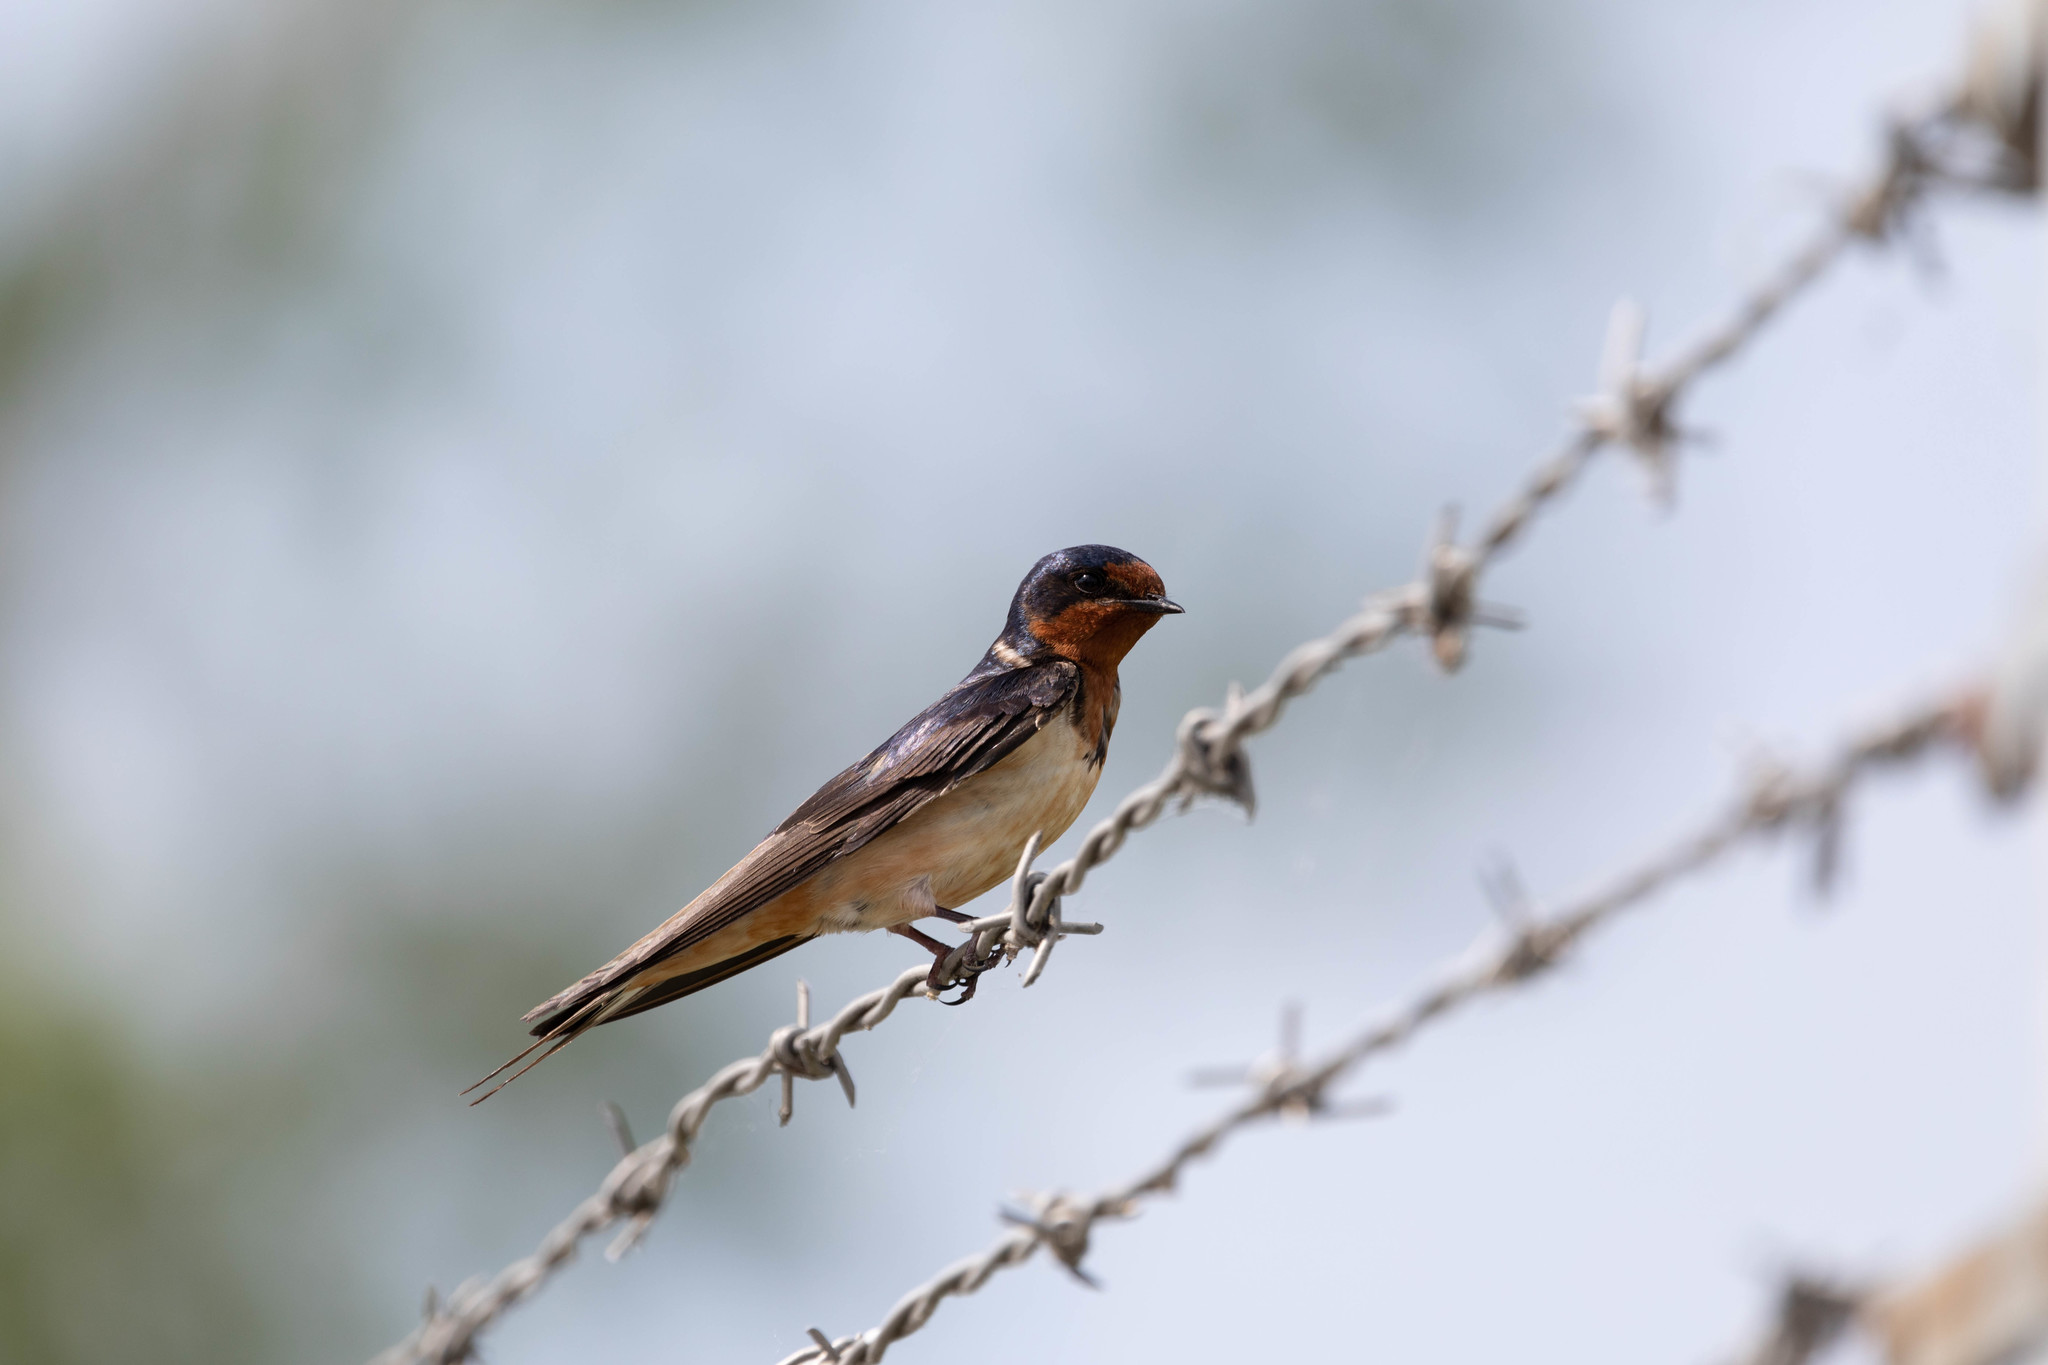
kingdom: Animalia
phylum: Chordata
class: Aves
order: Passeriformes
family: Hirundinidae
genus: Hirundo
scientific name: Hirundo rustica
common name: Barn swallow
